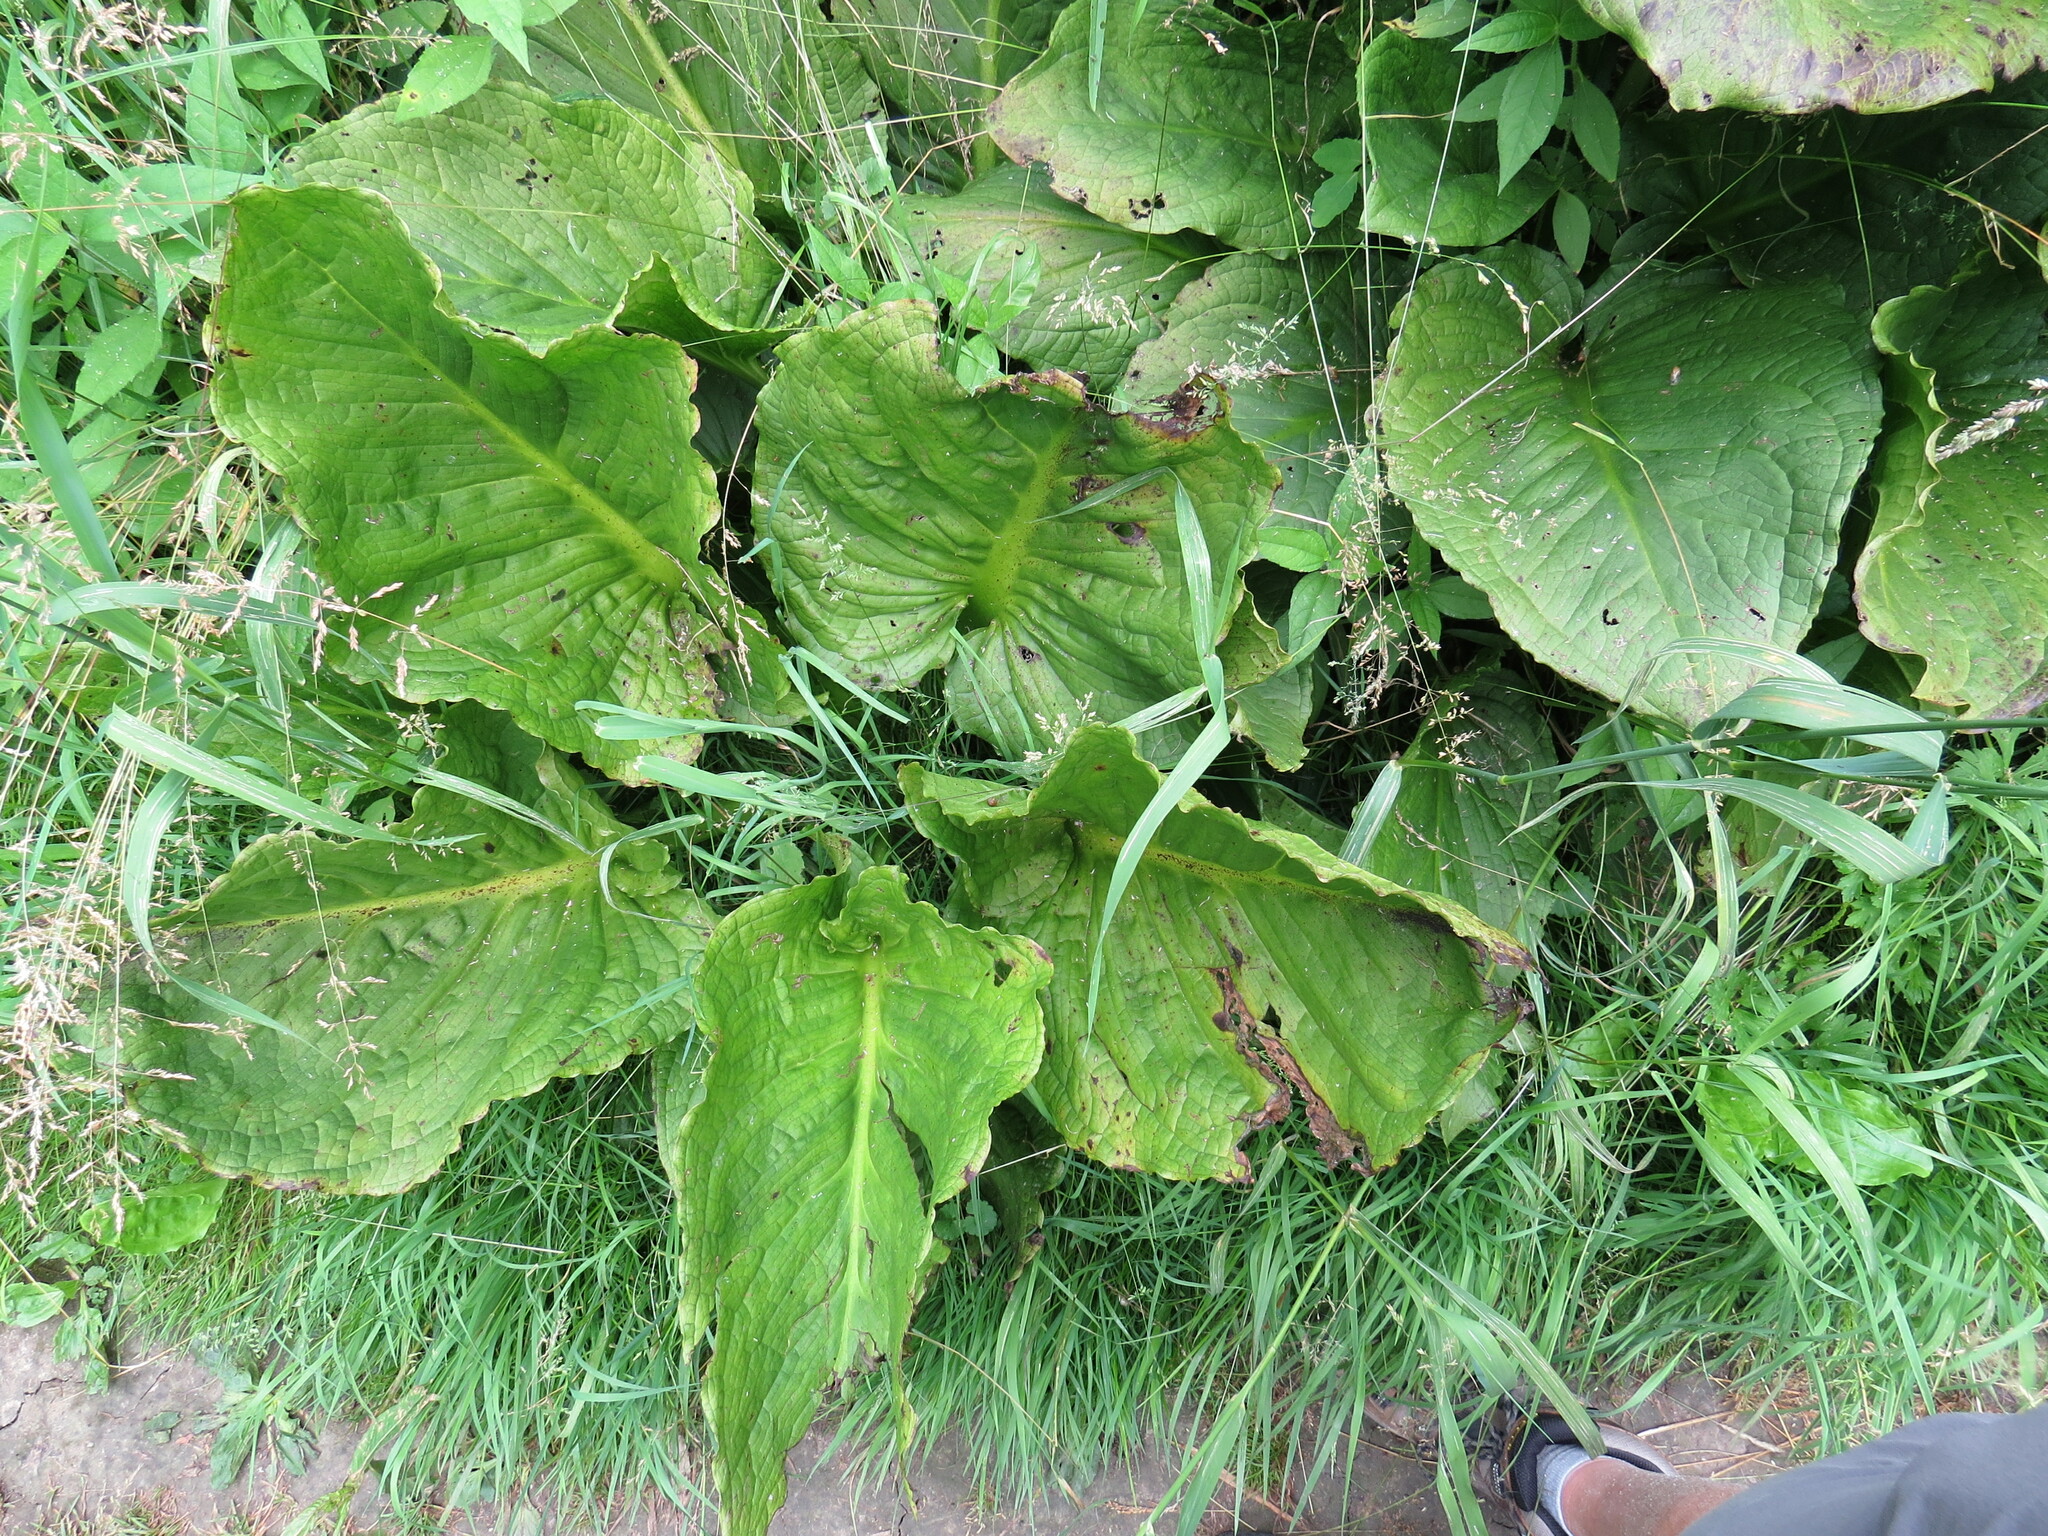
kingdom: Plantae
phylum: Tracheophyta
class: Liliopsida
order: Alismatales
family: Araceae
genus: Symplocarpus
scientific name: Symplocarpus foetidus
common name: Eastern skunk cabbage
